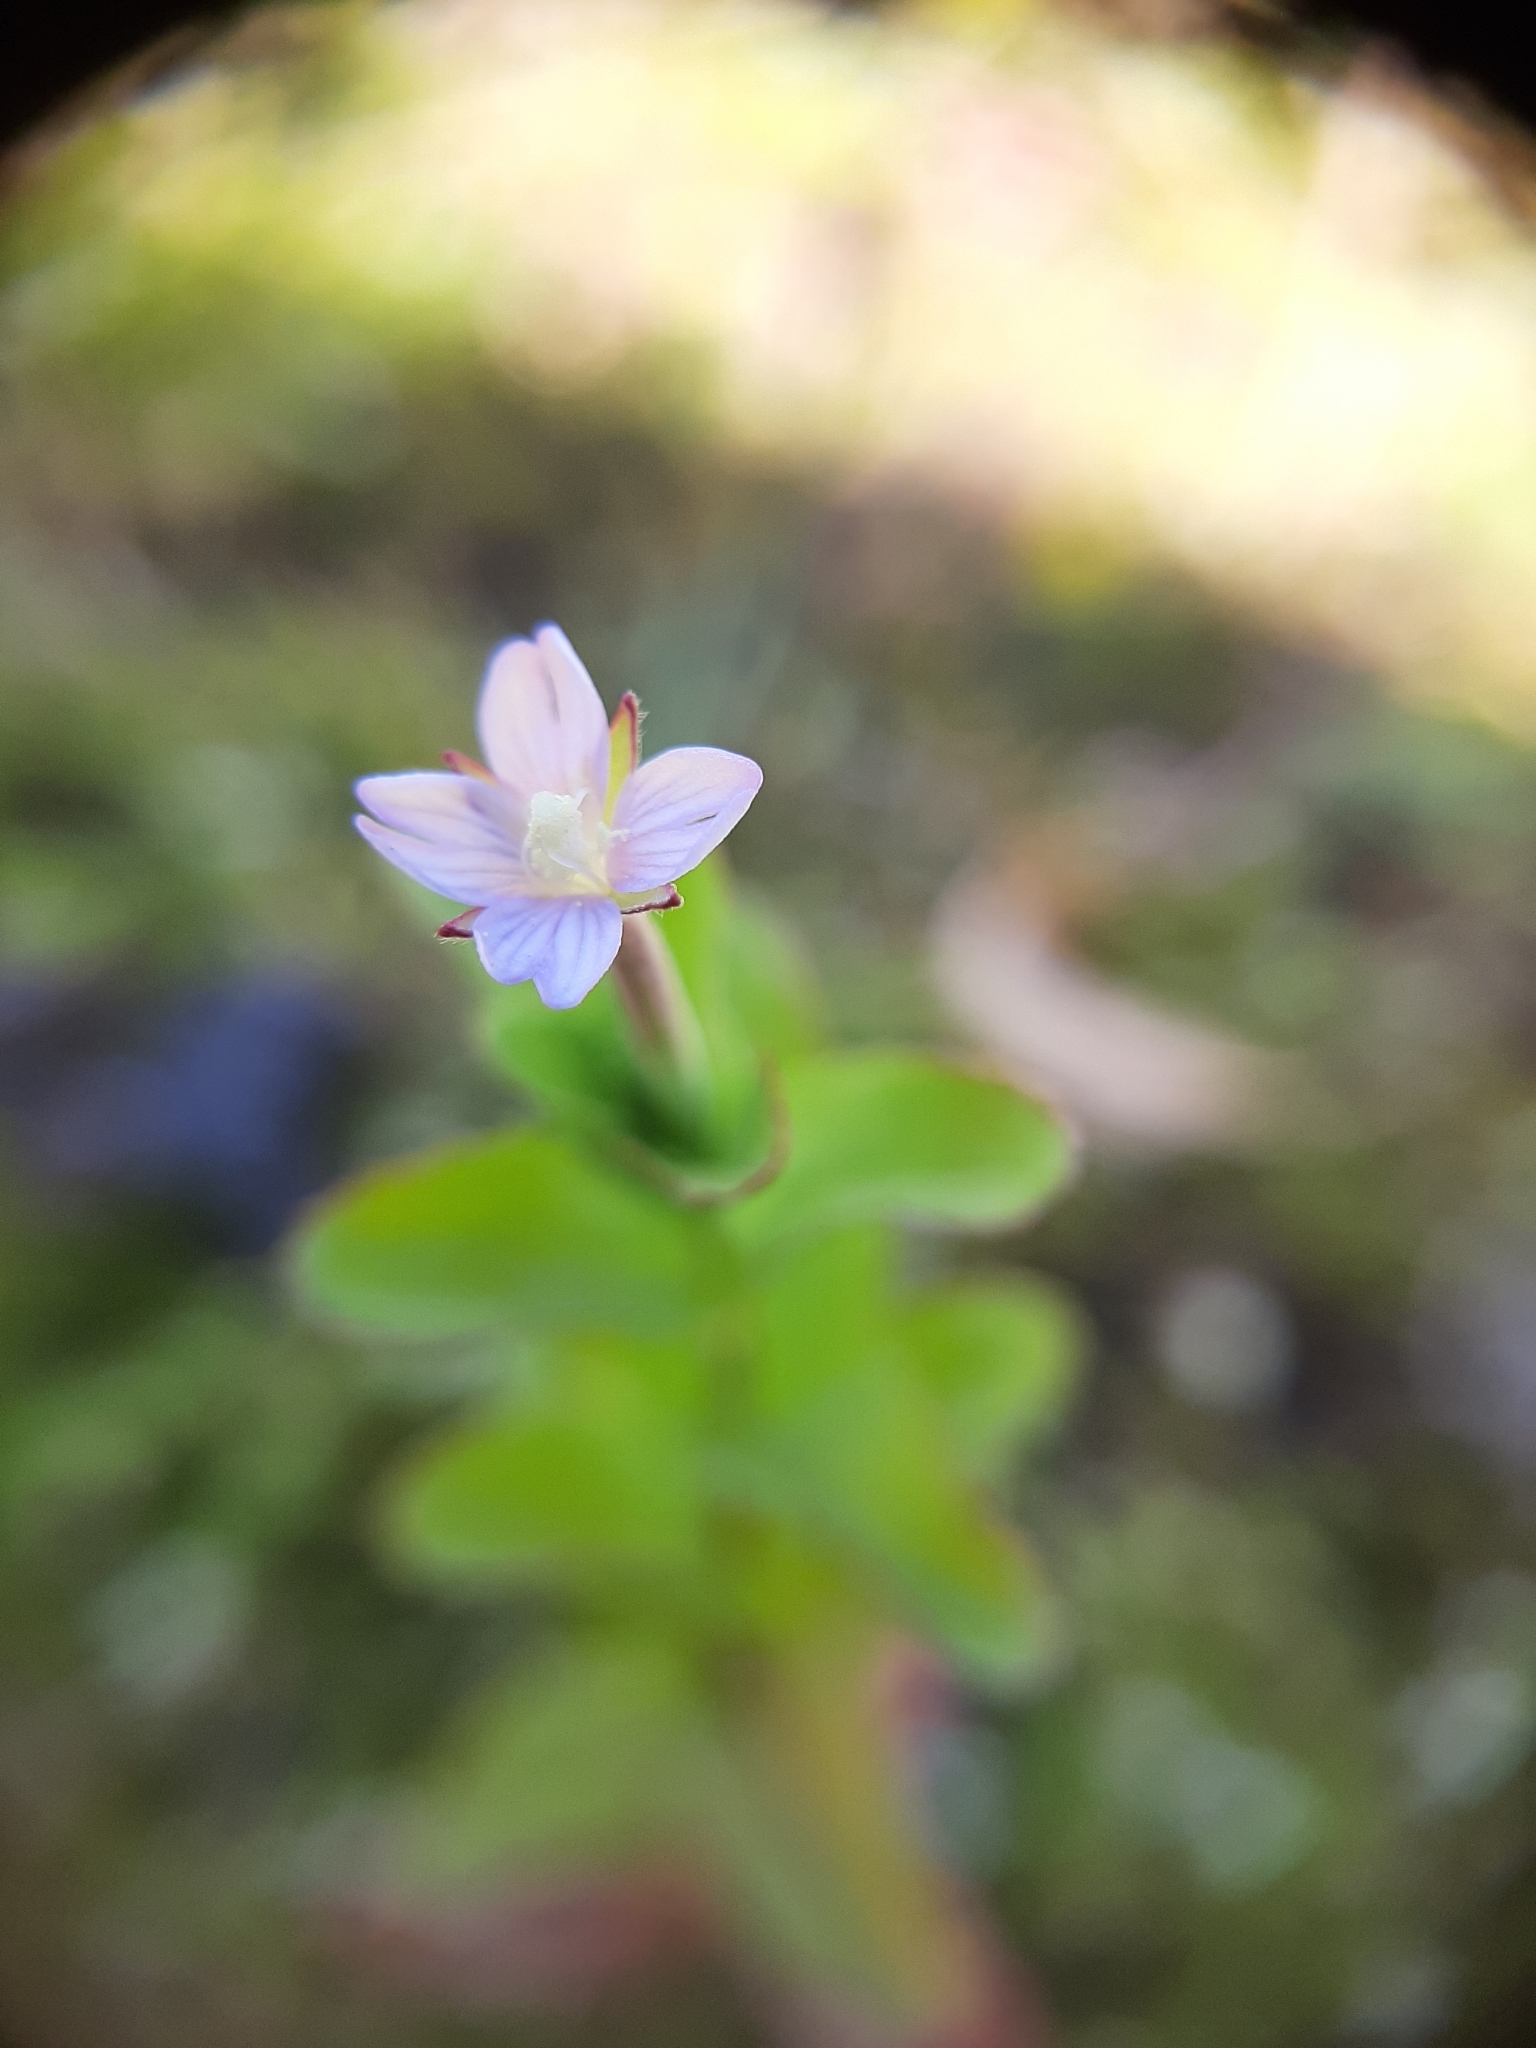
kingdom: Plantae
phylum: Tracheophyta
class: Magnoliopsida
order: Myrtales
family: Onagraceae
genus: Epilobium
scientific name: Epilobium billardiereanum
